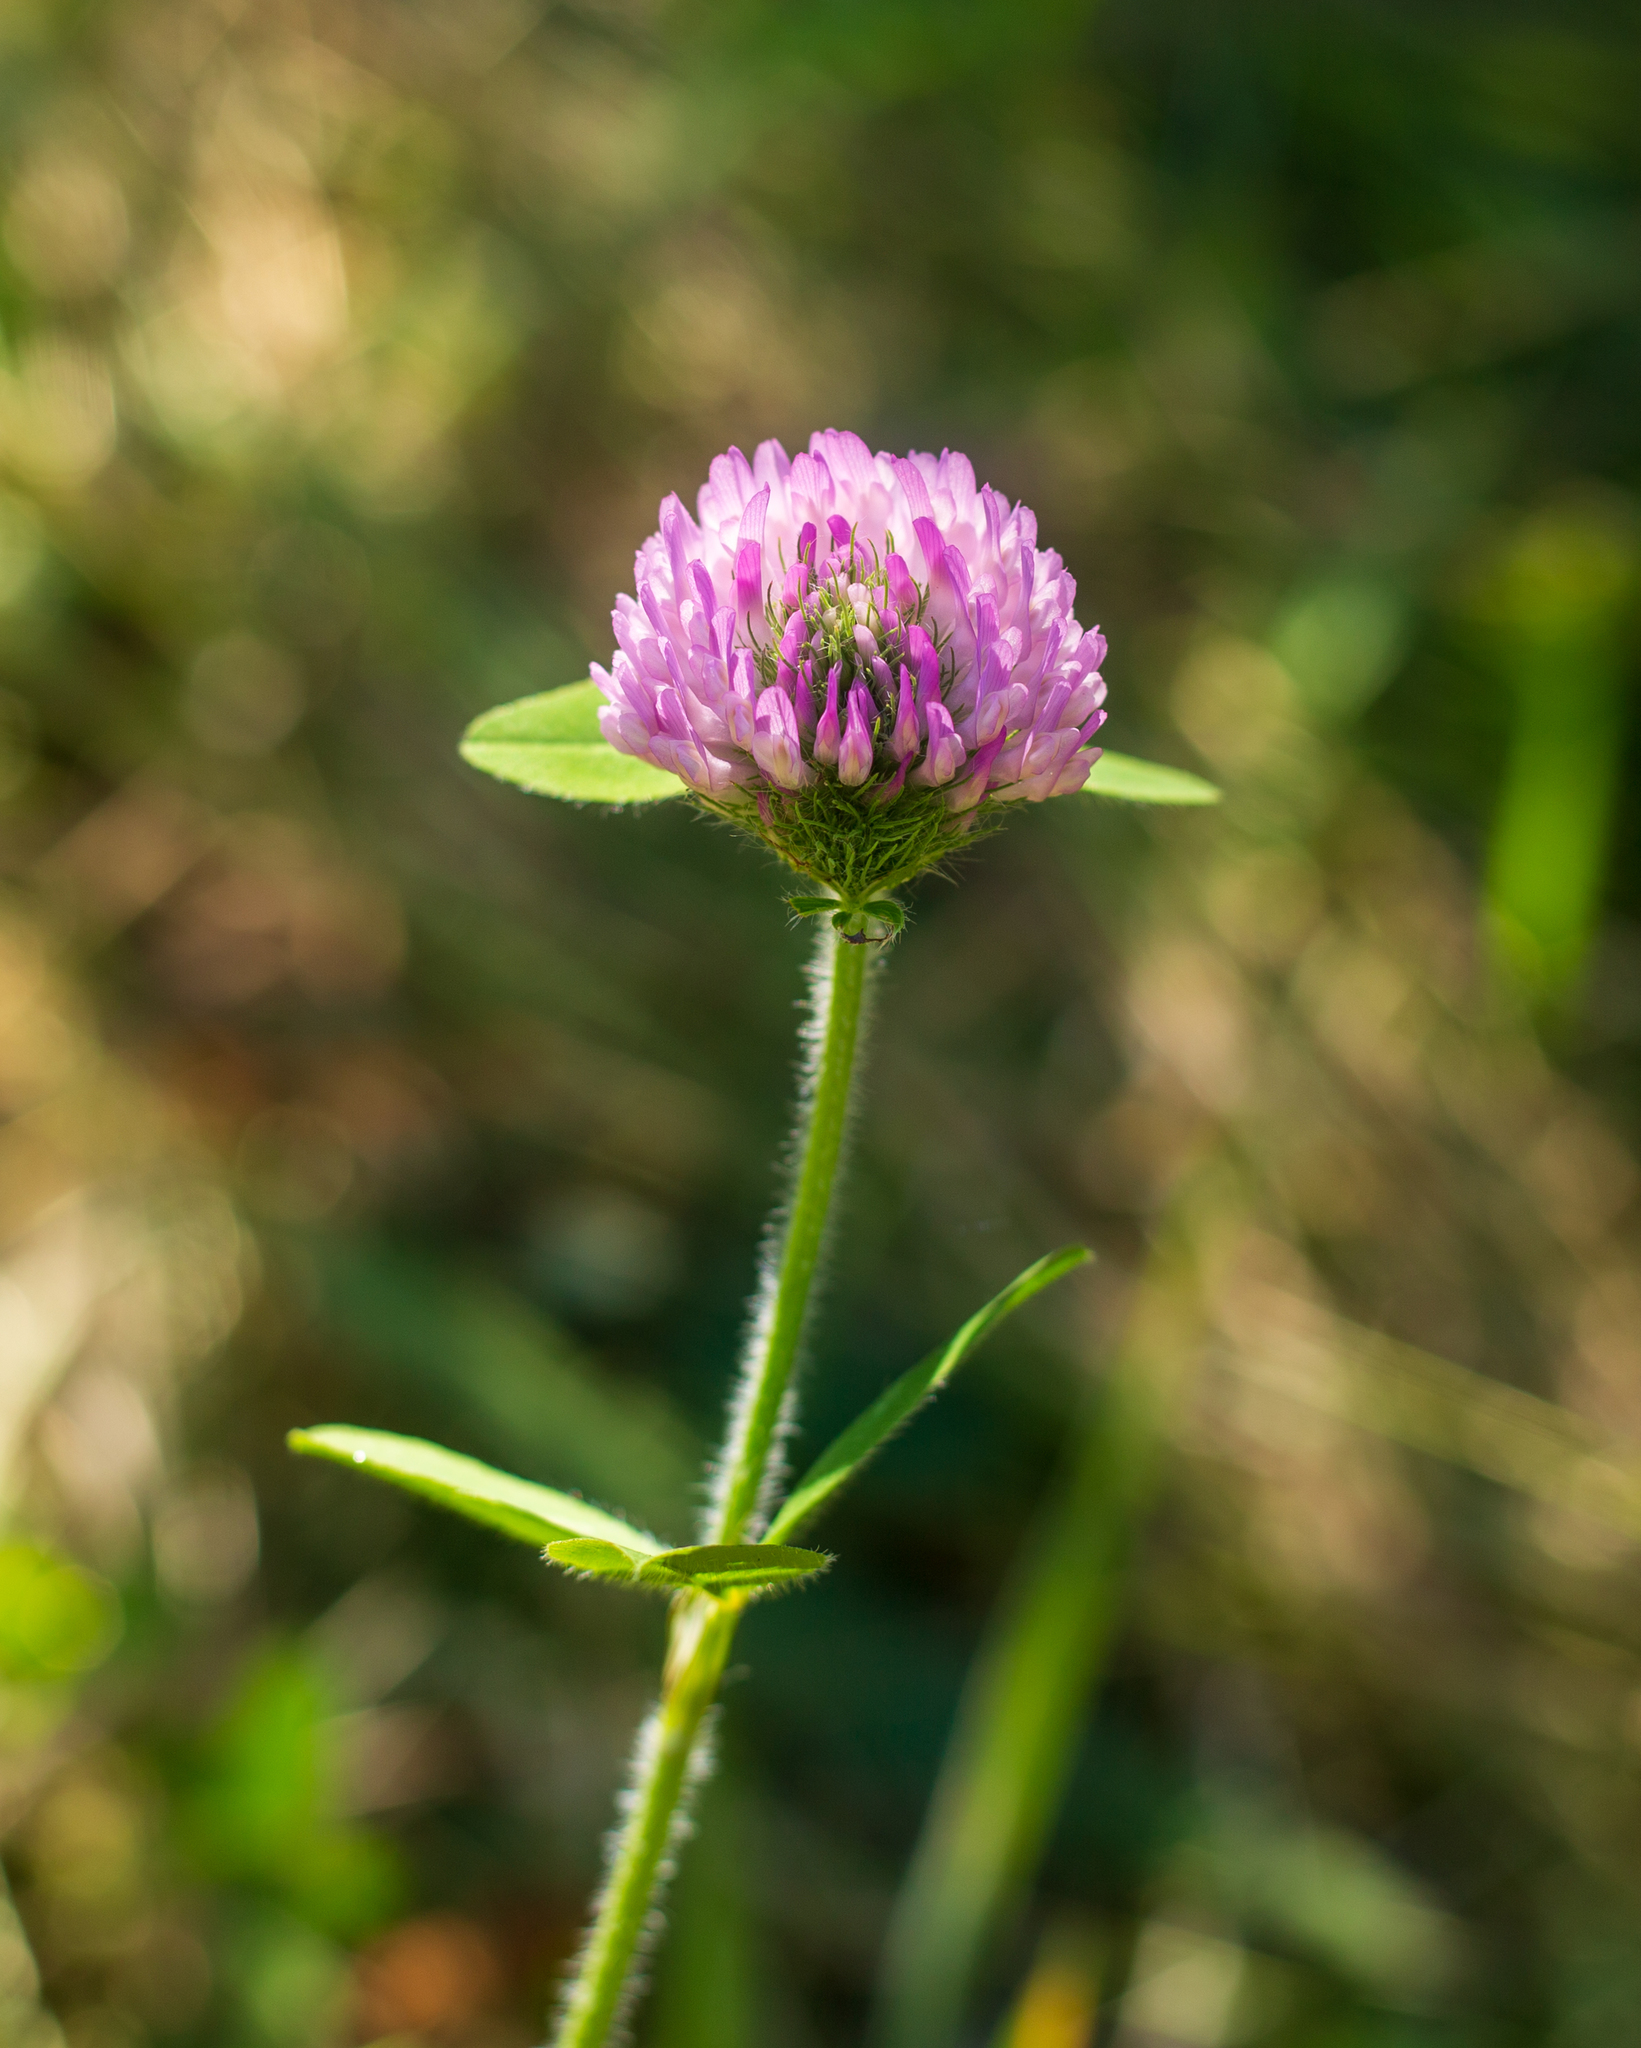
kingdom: Plantae
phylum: Tracheophyta
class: Magnoliopsida
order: Fabales
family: Fabaceae
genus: Trifolium
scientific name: Trifolium pratense
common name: Red clover
